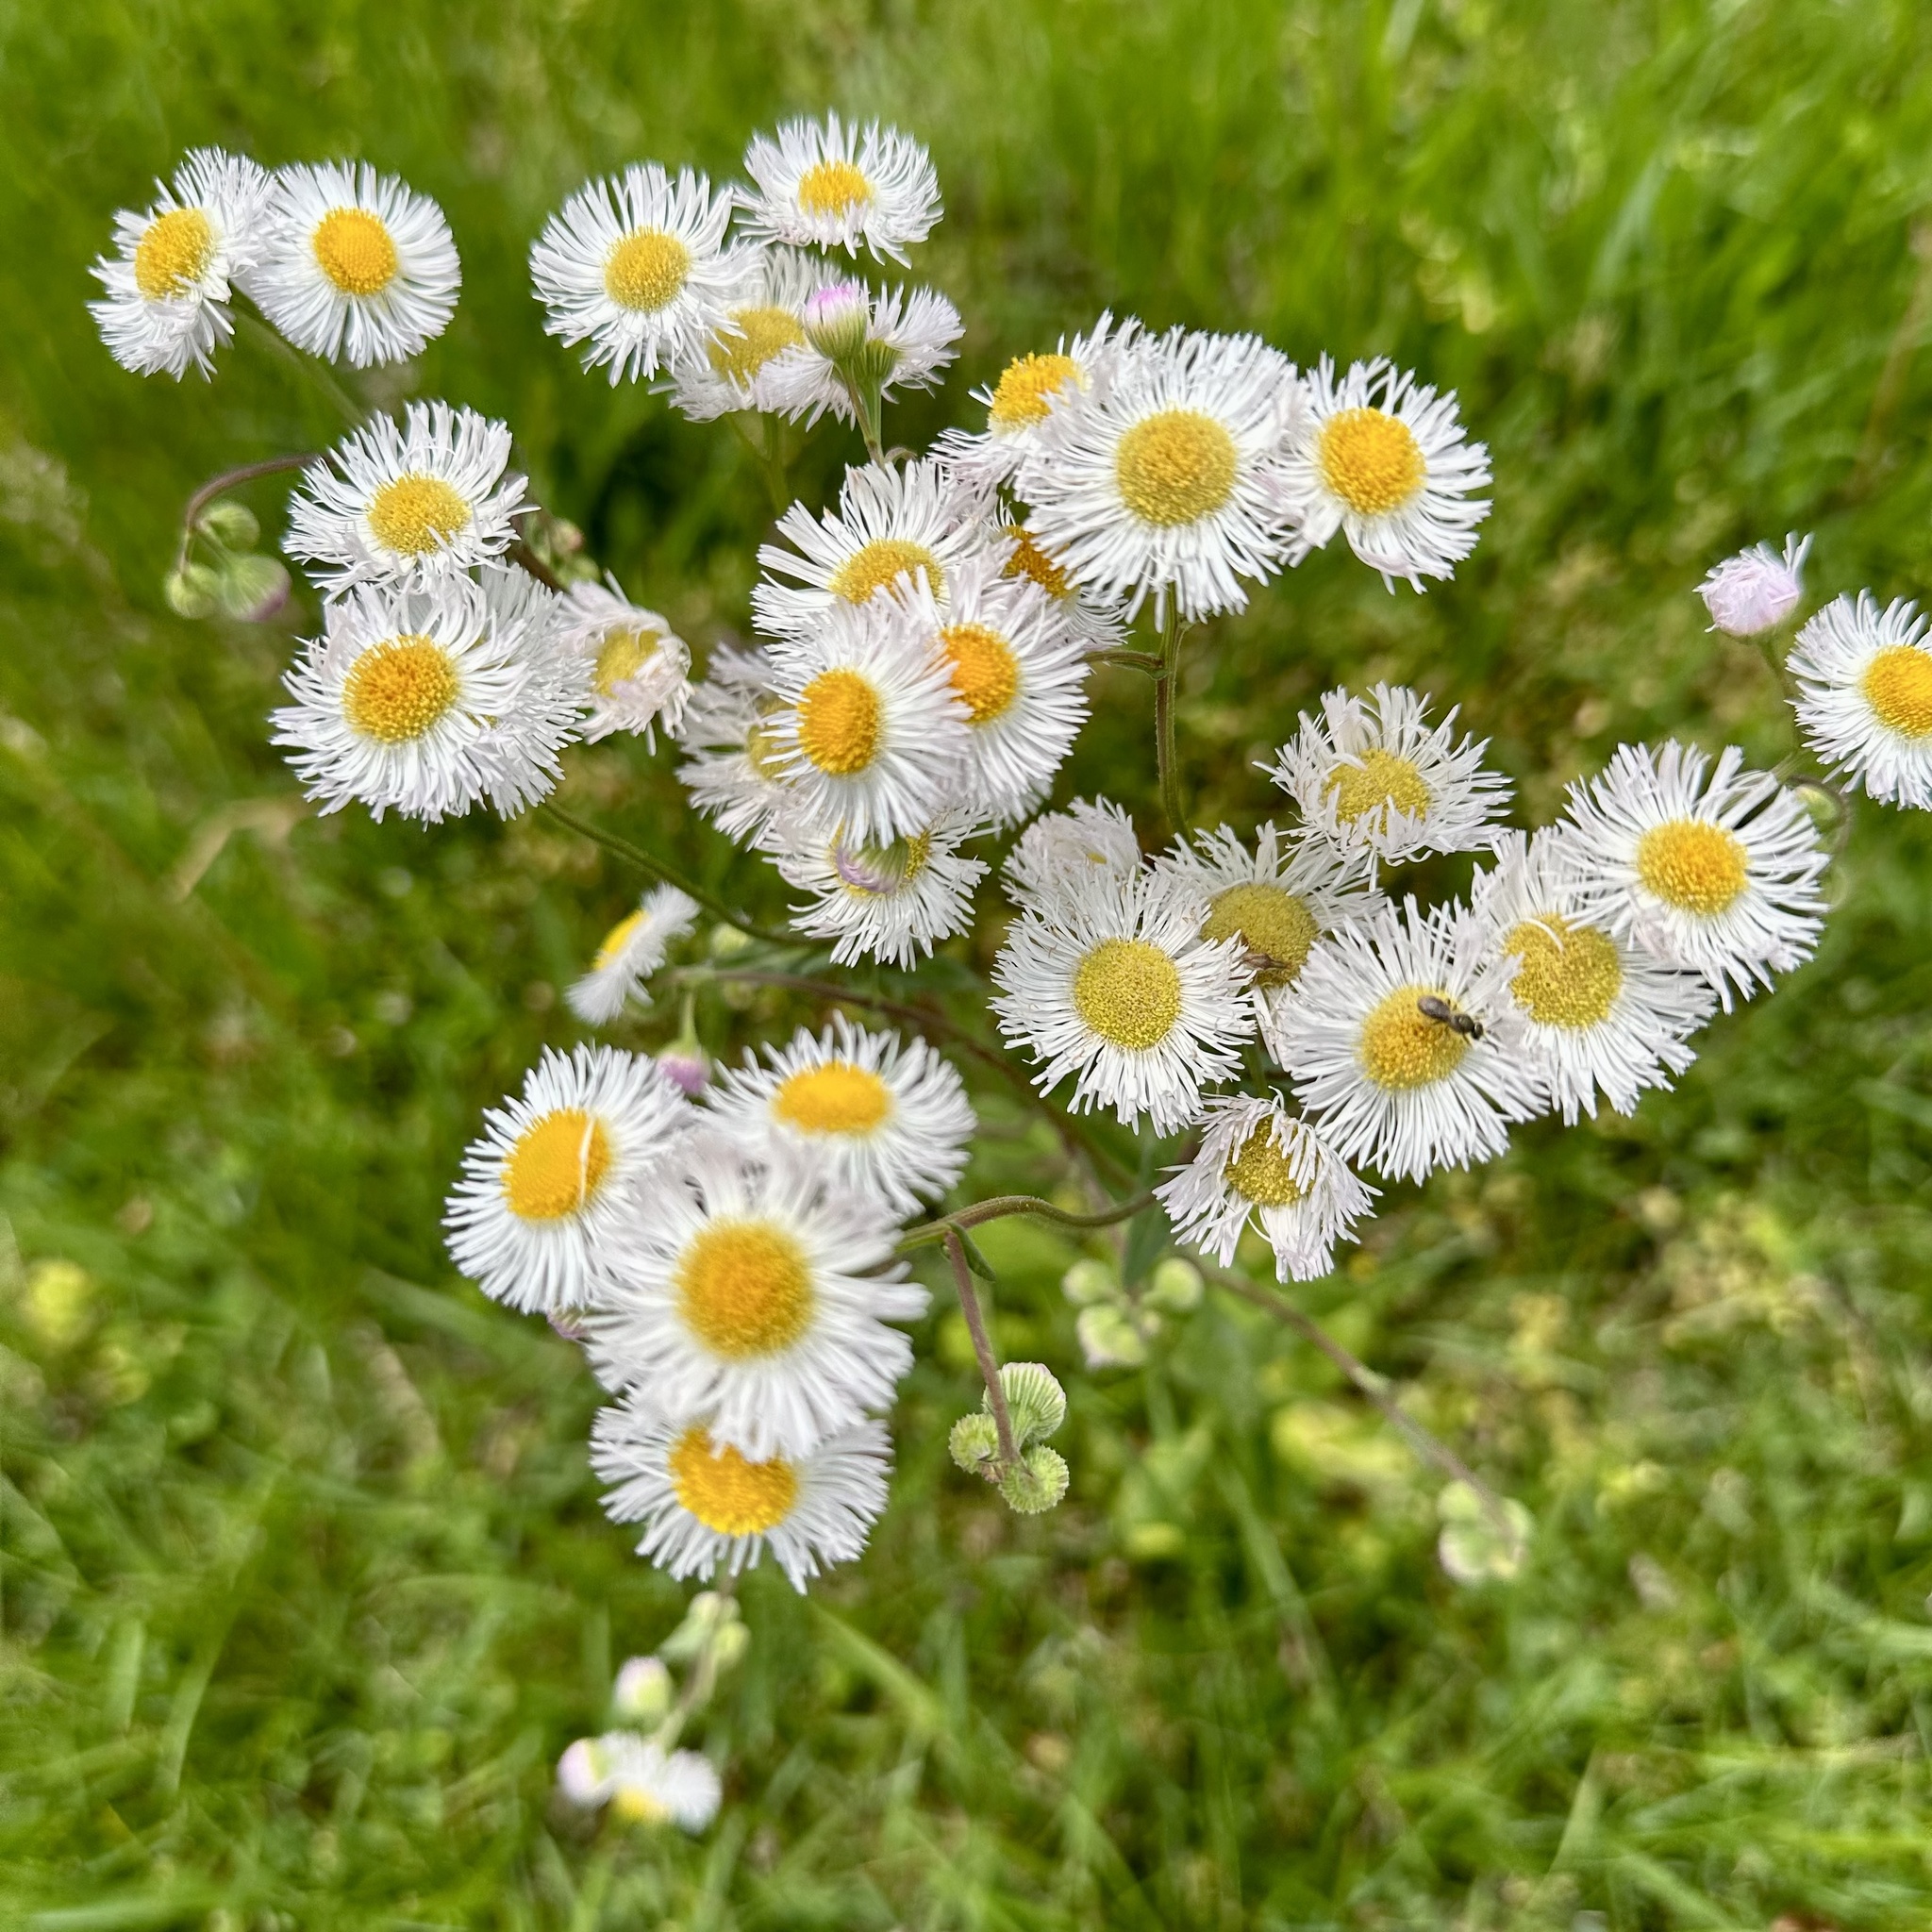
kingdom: Plantae
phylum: Tracheophyta
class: Magnoliopsida
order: Asterales
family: Asteraceae
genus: Erigeron
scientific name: Erigeron philadelphicus
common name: Robin's-plantain
